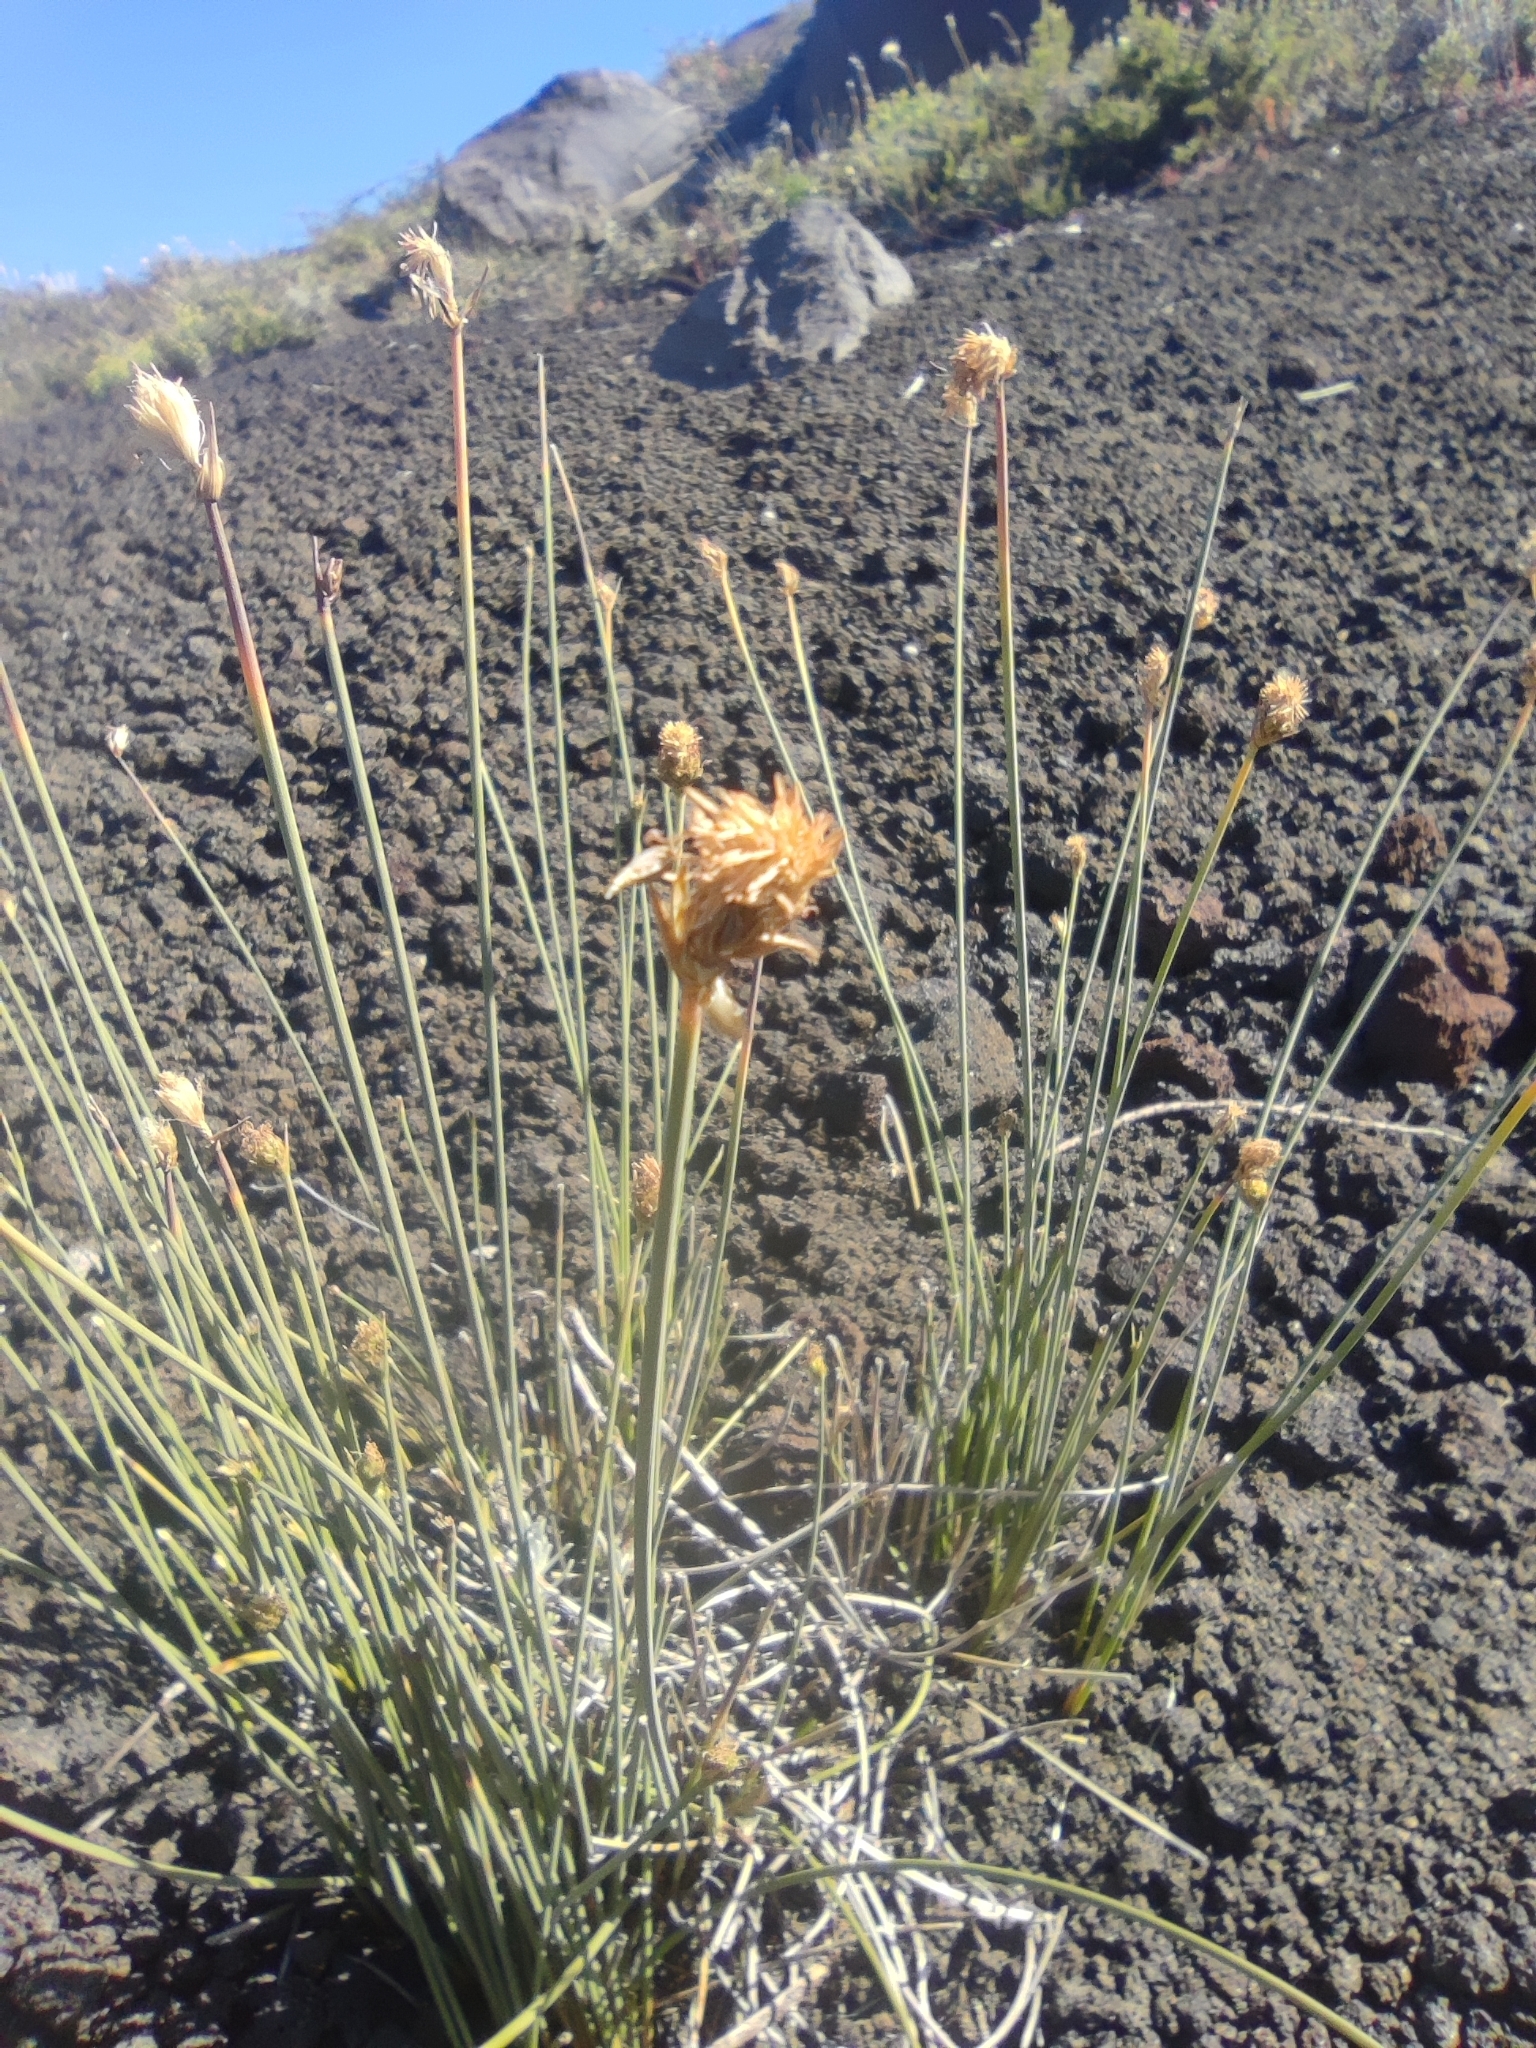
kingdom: Plantae
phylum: Tracheophyta
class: Liliopsida
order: Poales
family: Cyperaceae
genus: Carex
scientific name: Carex aphylla
